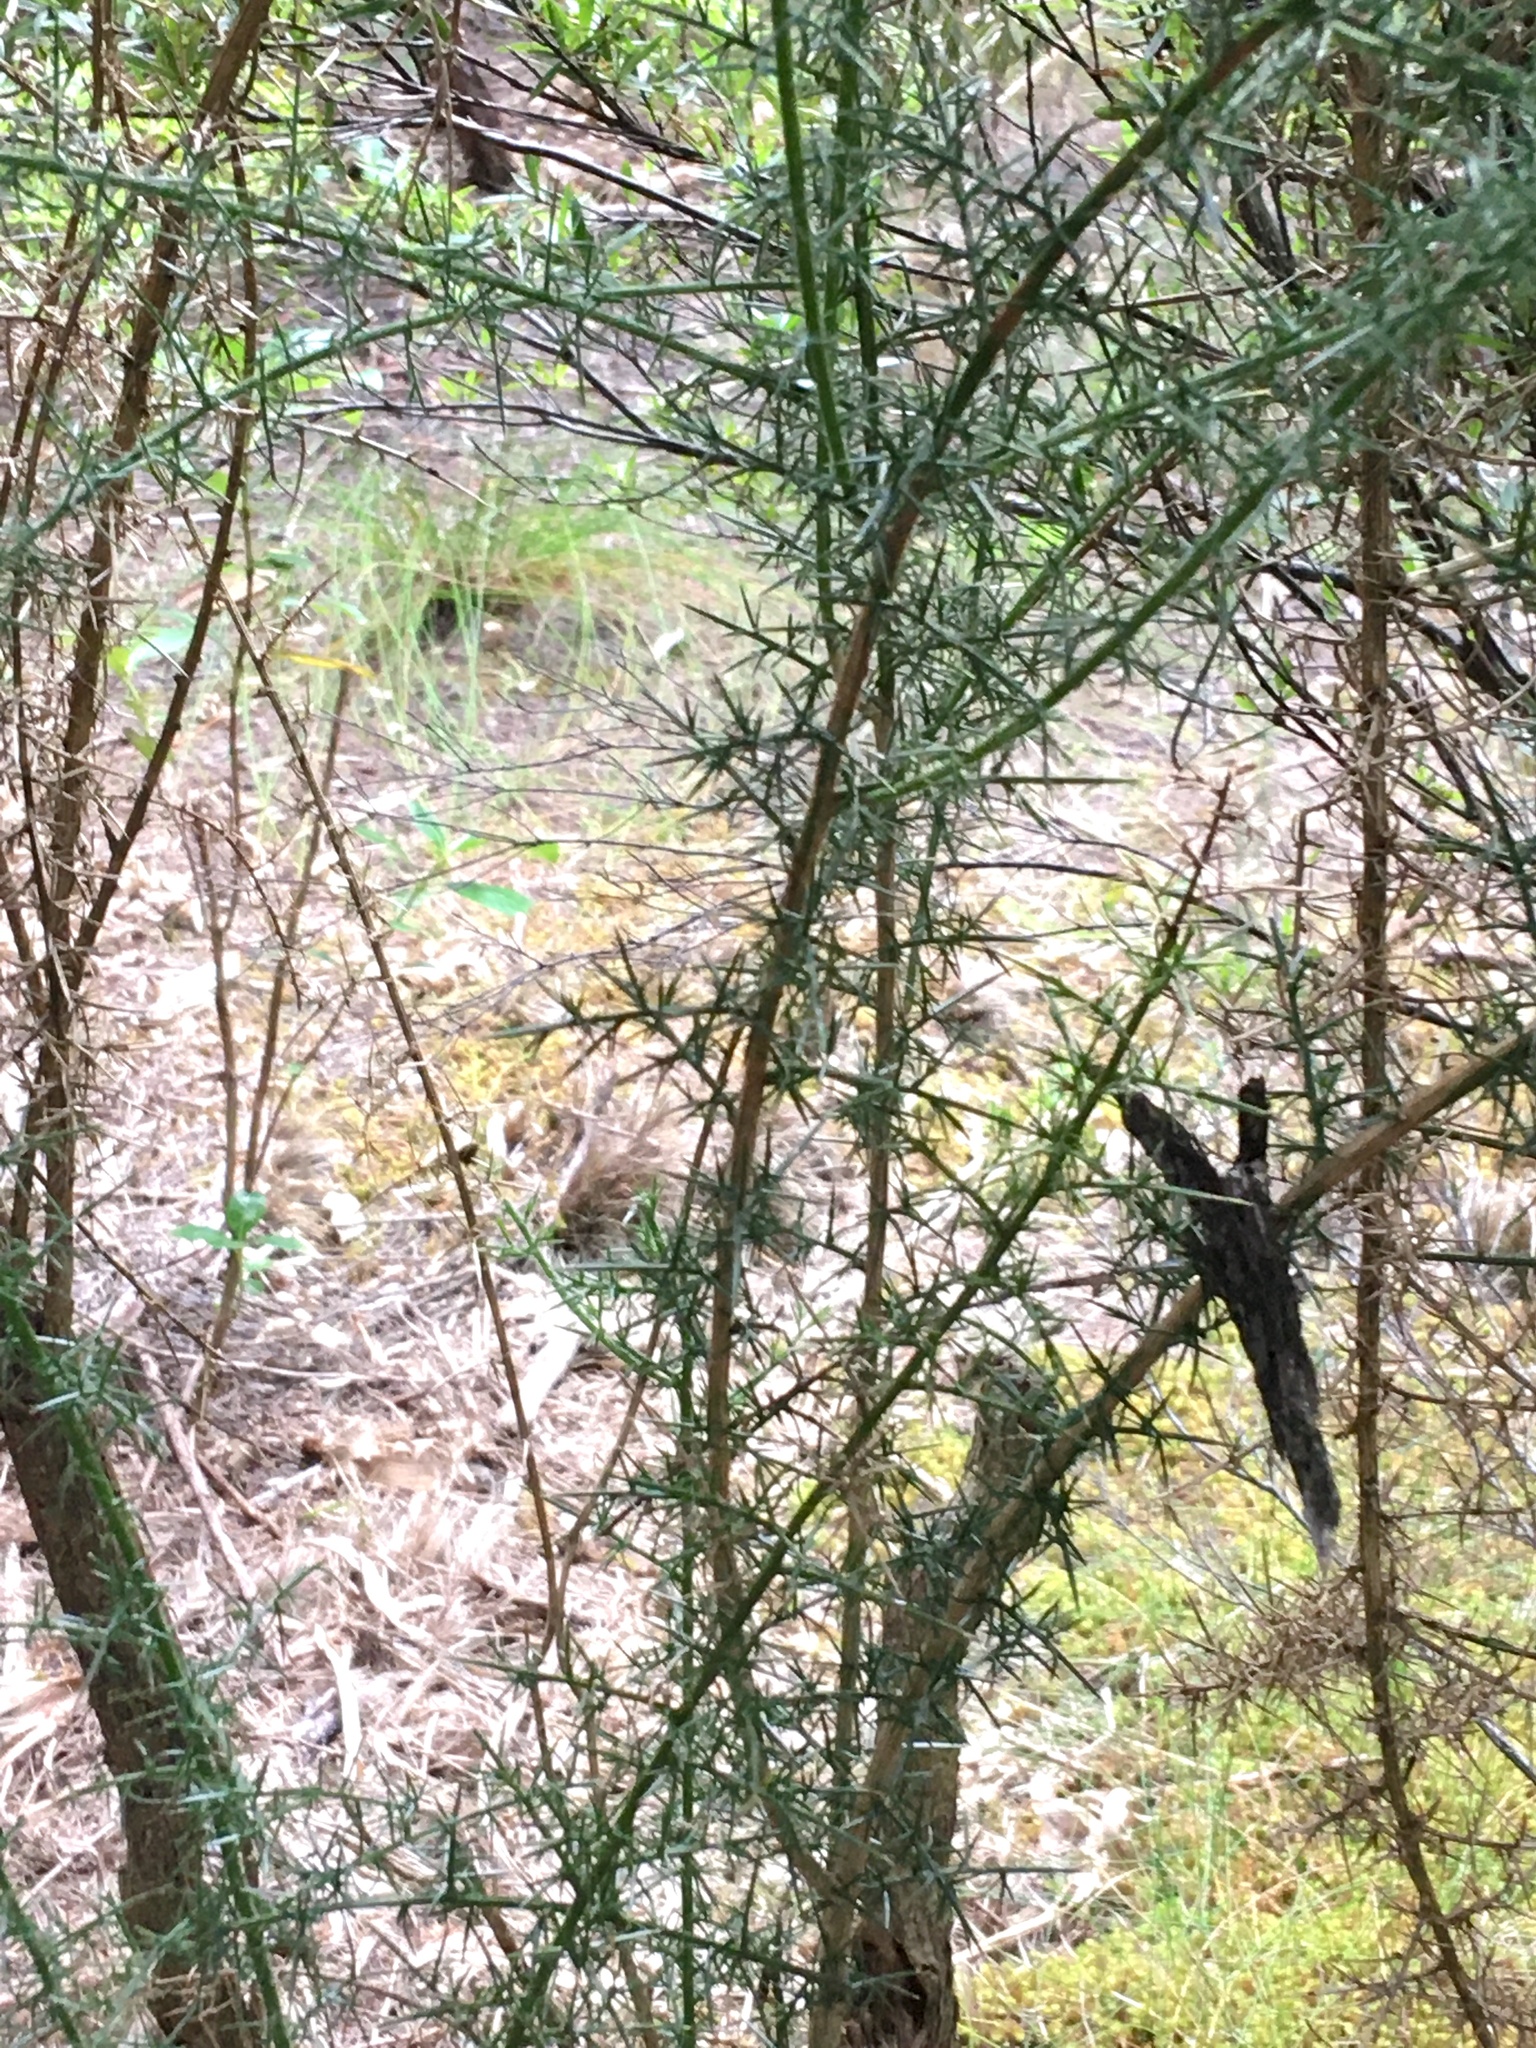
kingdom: Plantae
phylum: Tracheophyta
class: Magnoliopsida
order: Fabales
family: Fabaceae
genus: Ulex
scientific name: Ulex europaeus
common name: Common gorse
